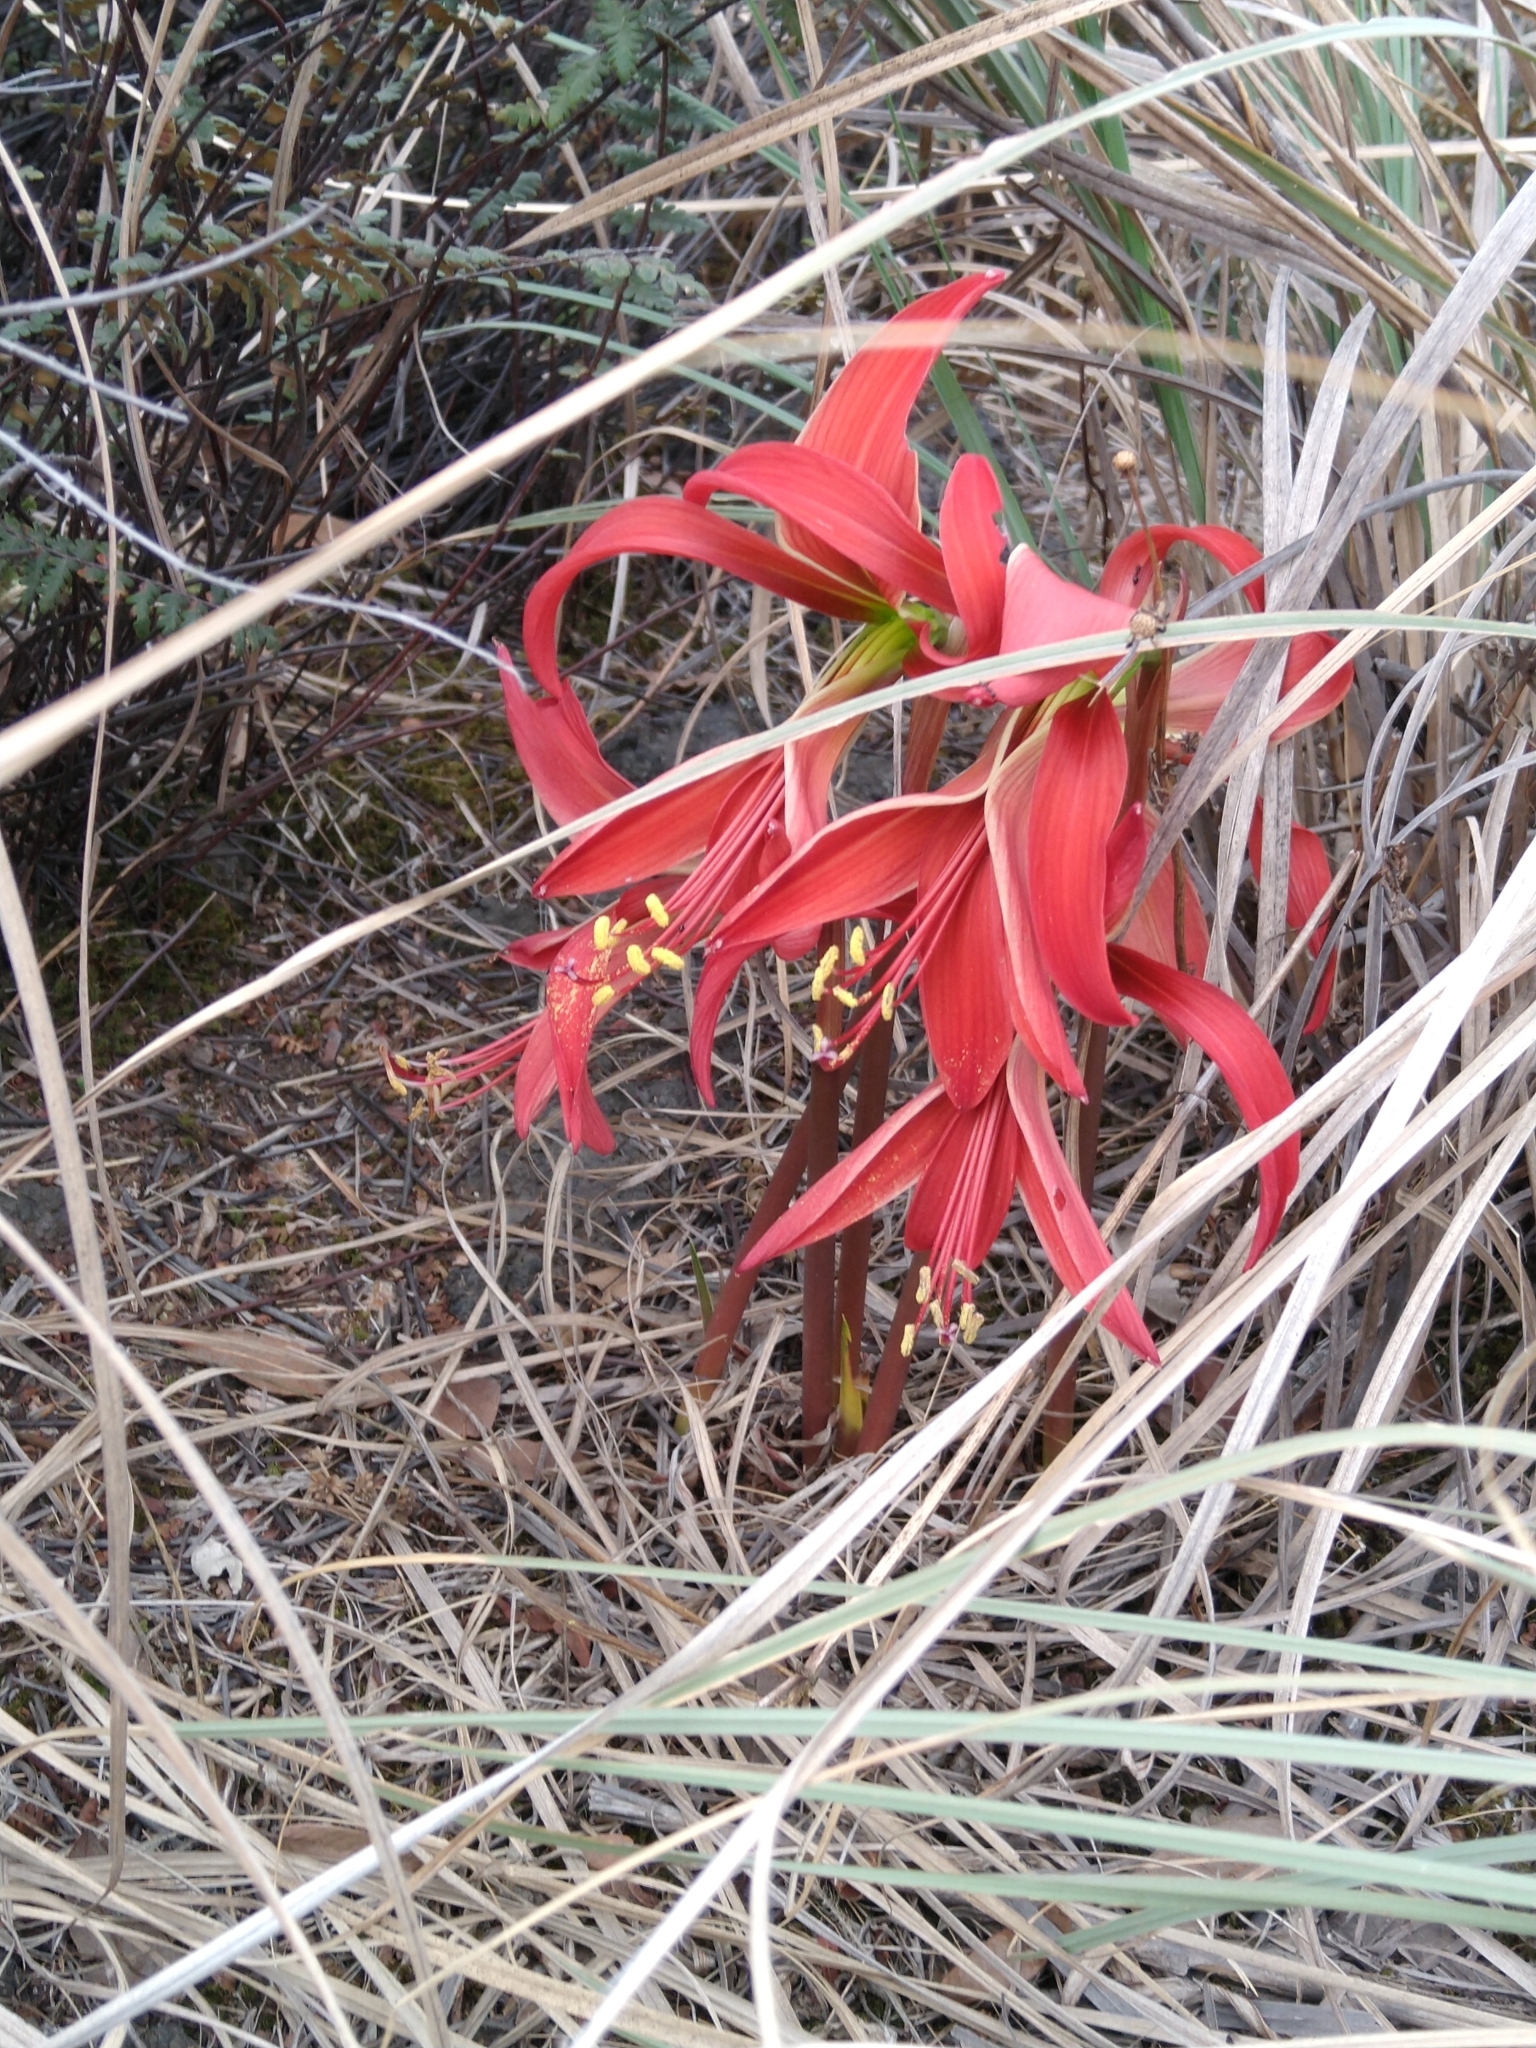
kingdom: Plantae
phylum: Tracheophyta
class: Liliopsida
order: Asparagales
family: Amaryllidaceae
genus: Sprekelia
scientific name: Sprekelia formosissima
